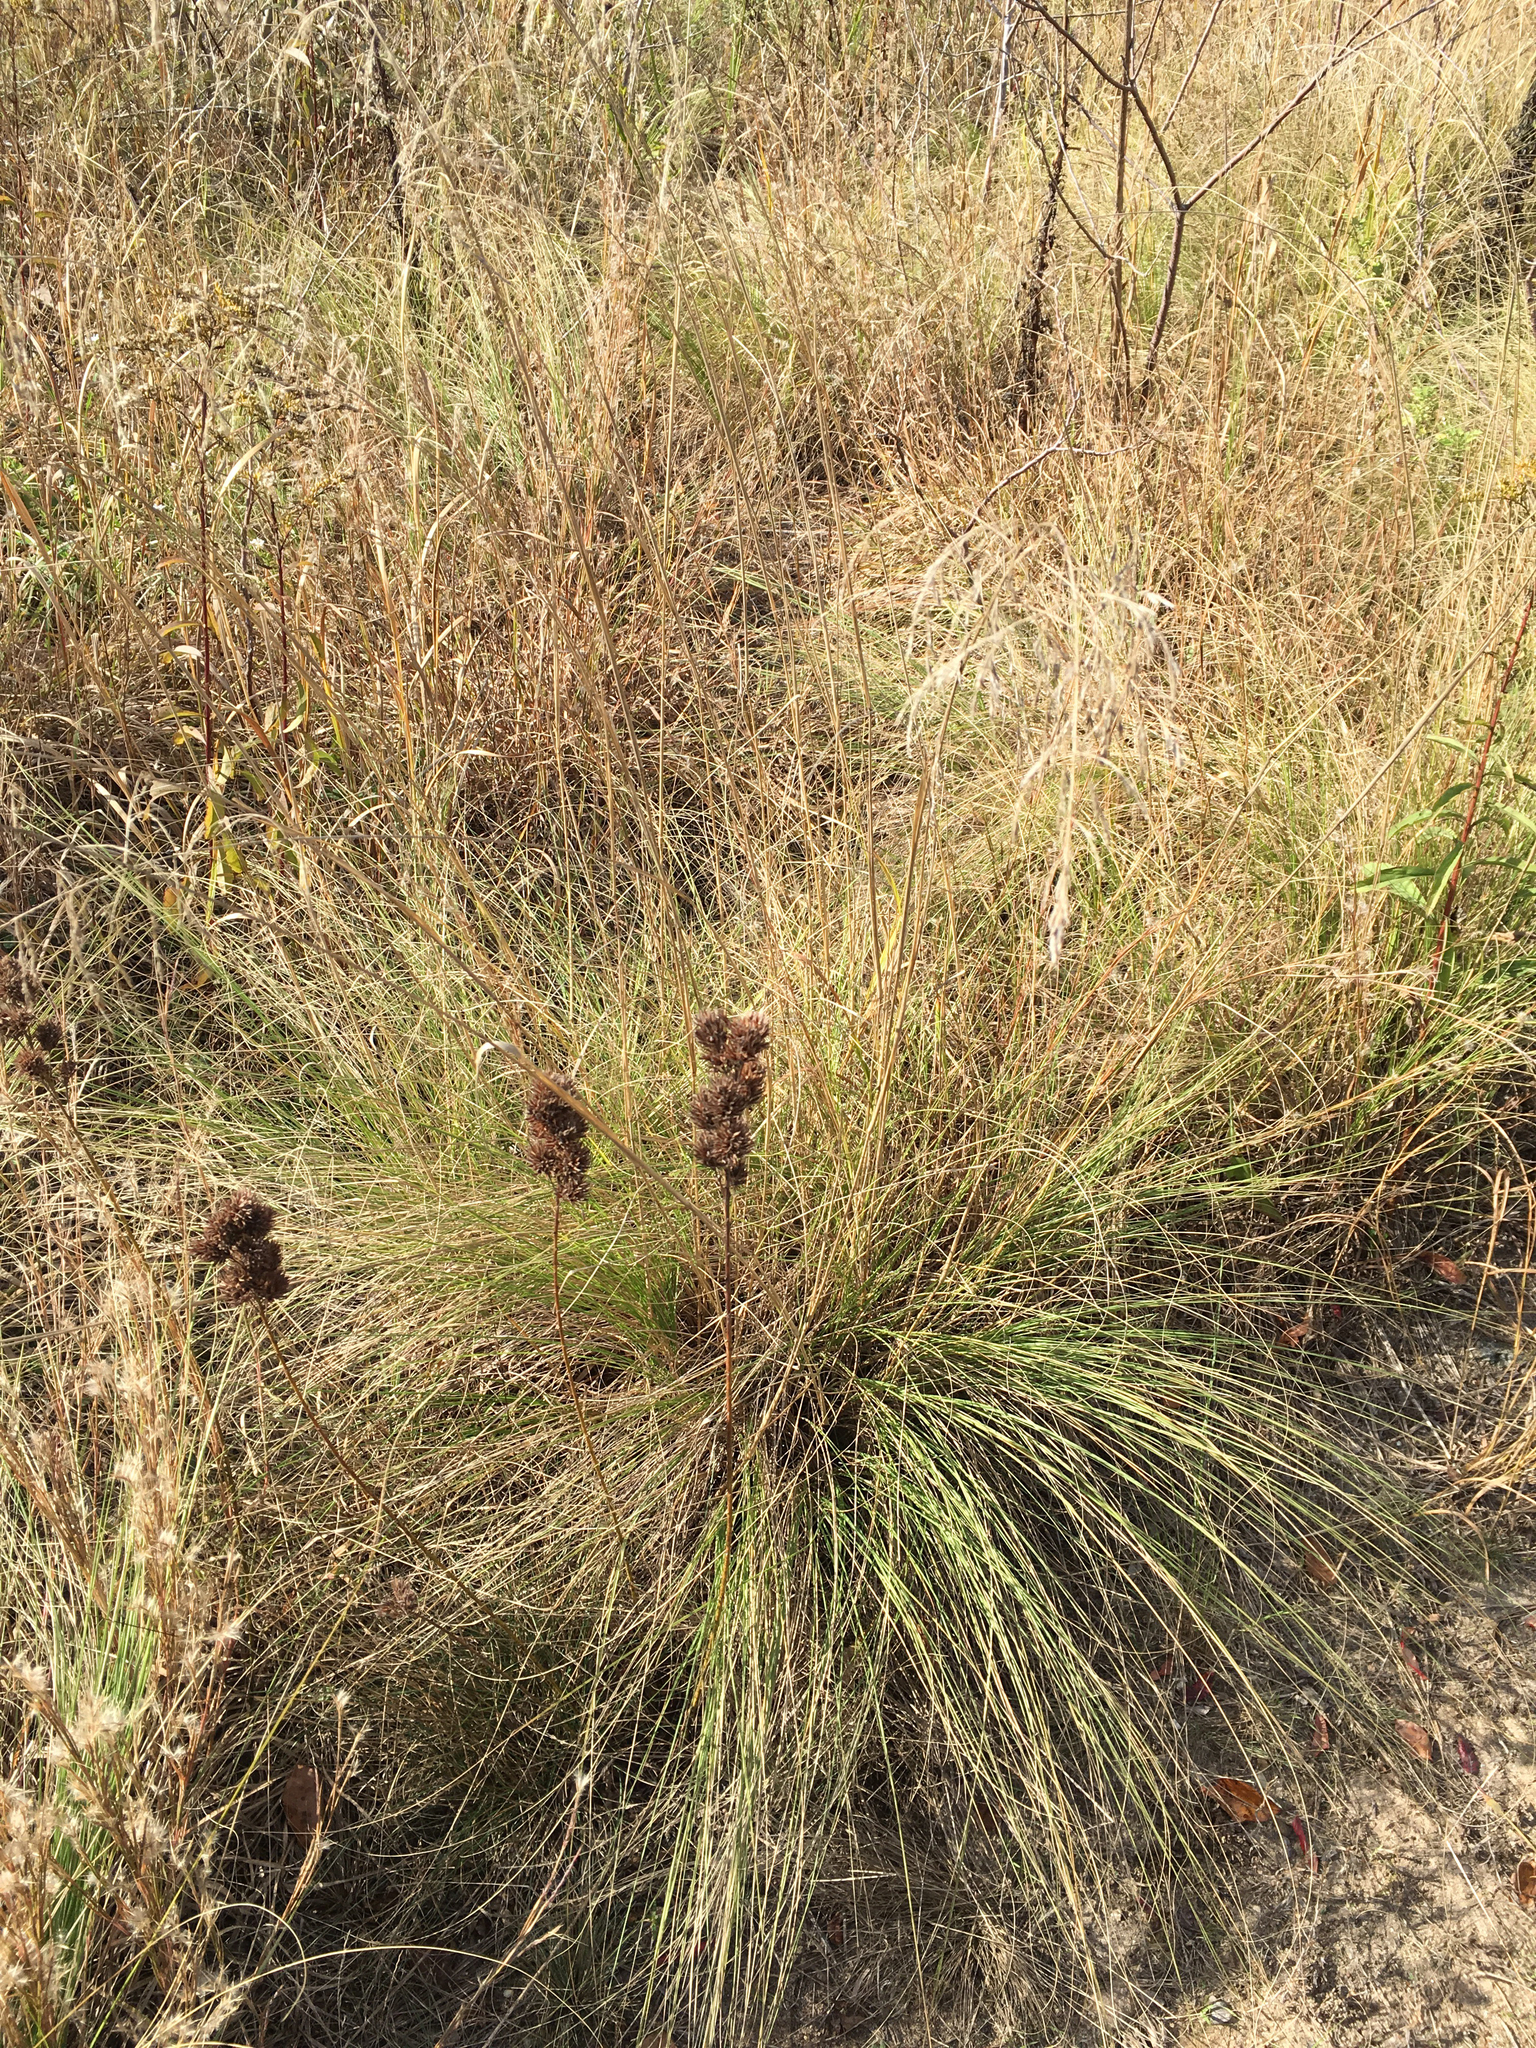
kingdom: Plantae
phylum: Tracheophyta
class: Liliopsida
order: Poales
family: Poaceae
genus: Eragrostis
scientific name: Eragrostis curvula
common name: African love-grass
